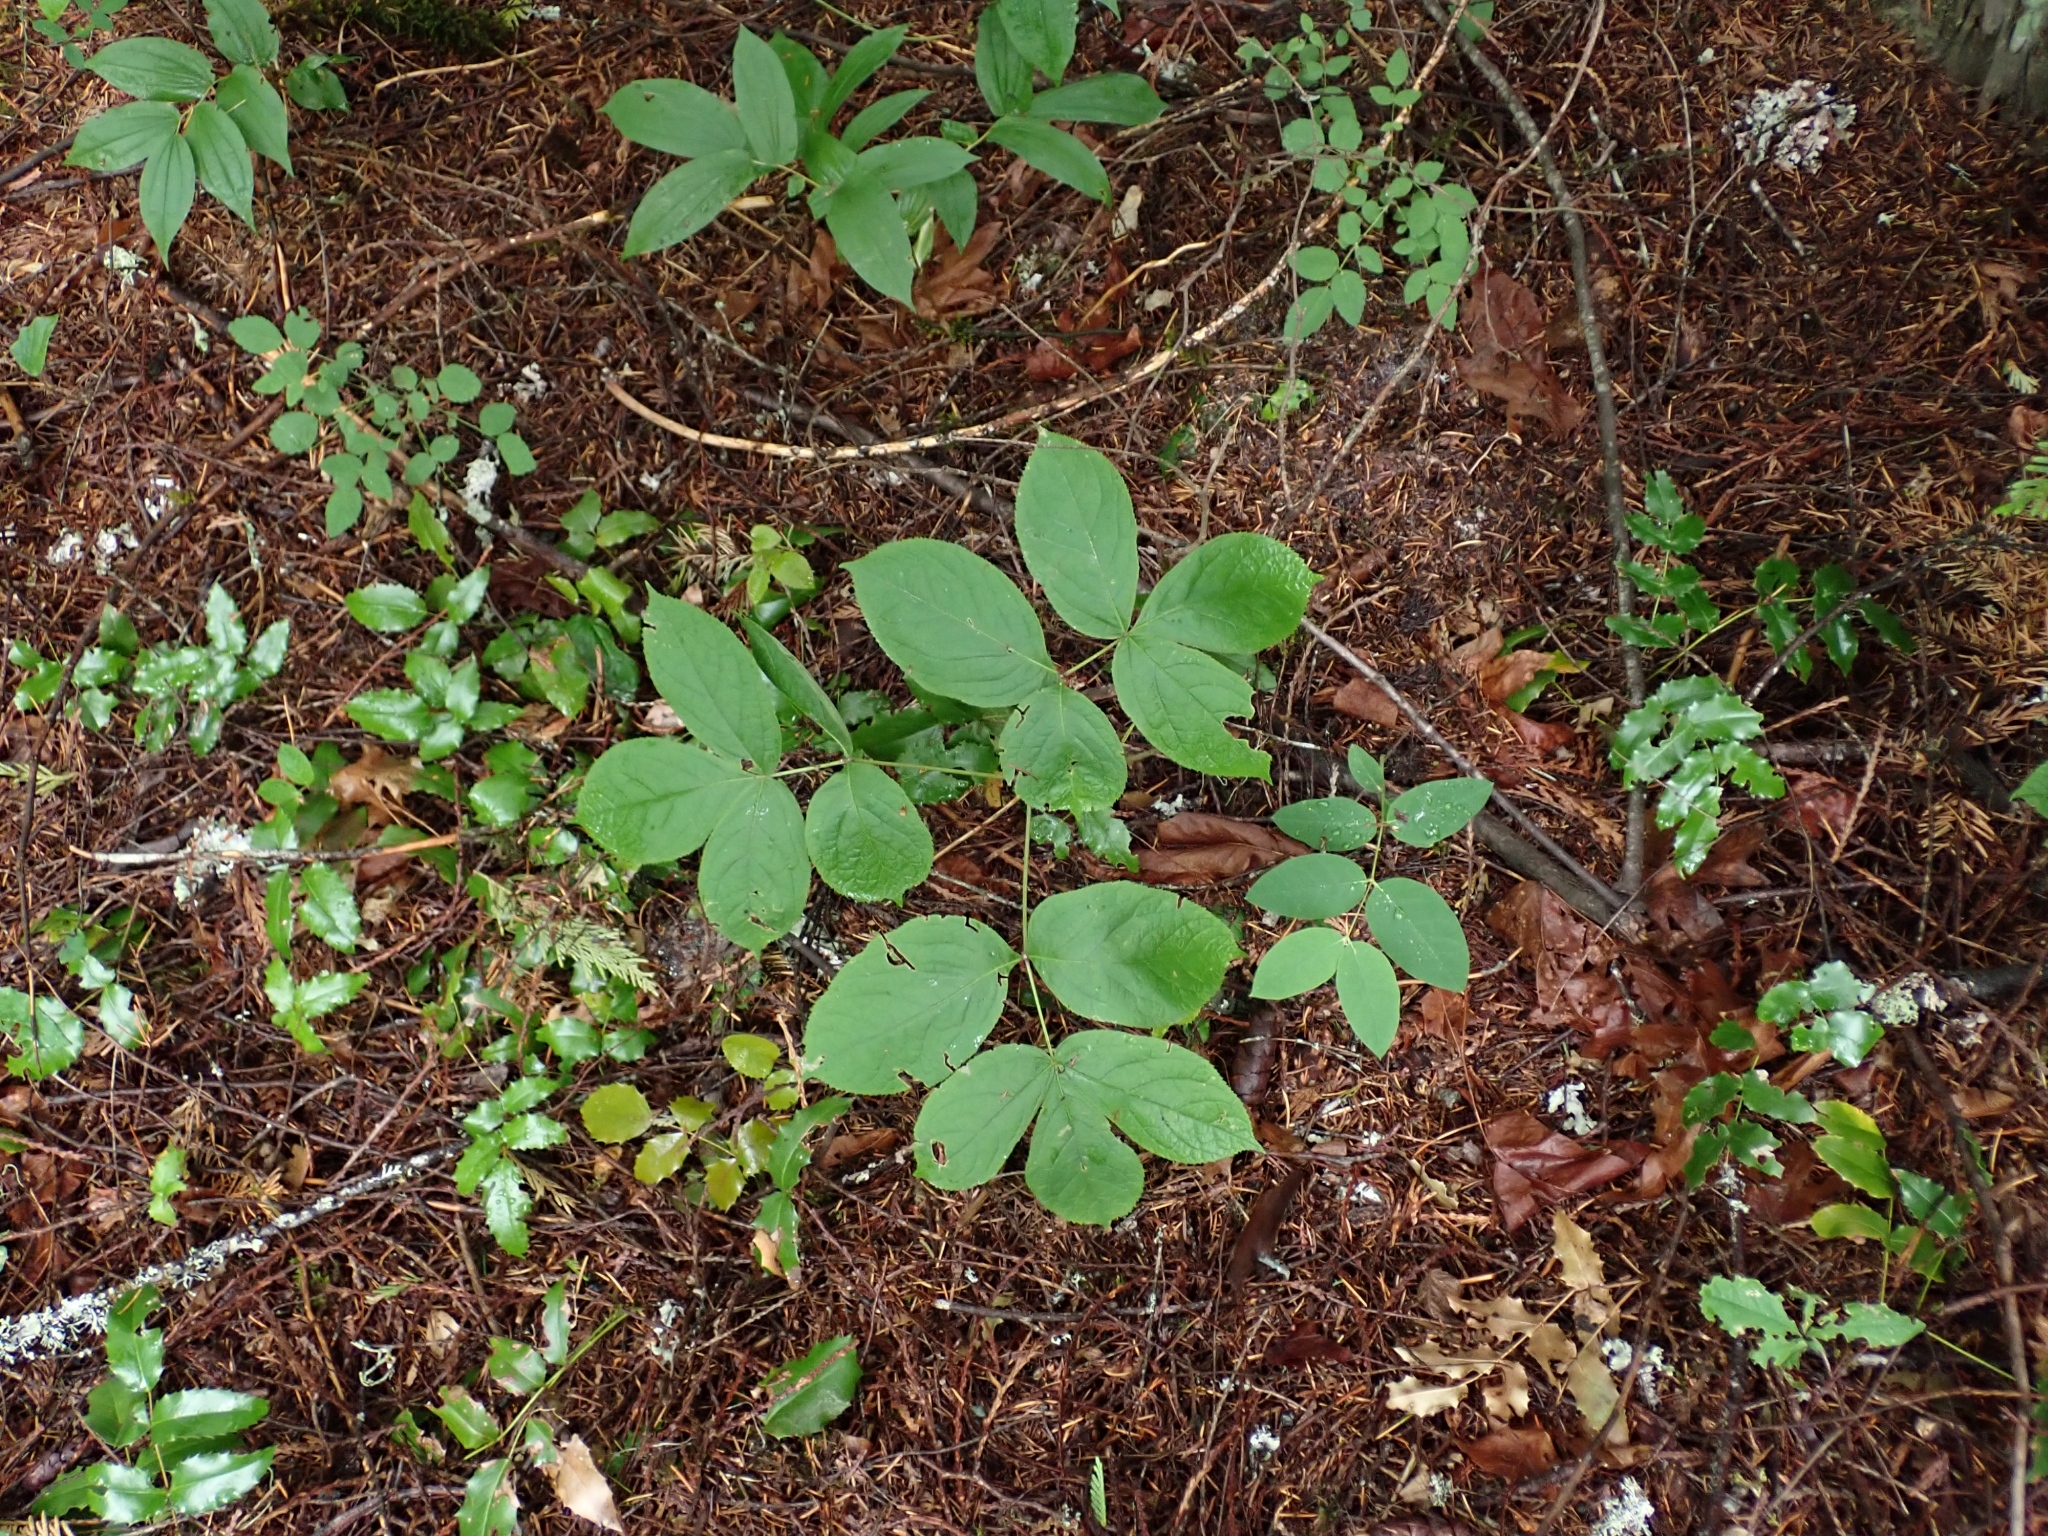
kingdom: Plantae
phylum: Tracheophyta
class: Magnoliopsida
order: Apiales
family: Araliaceae
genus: Aralia
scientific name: Aralia nudicaulis
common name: Wild sarsaparilla
